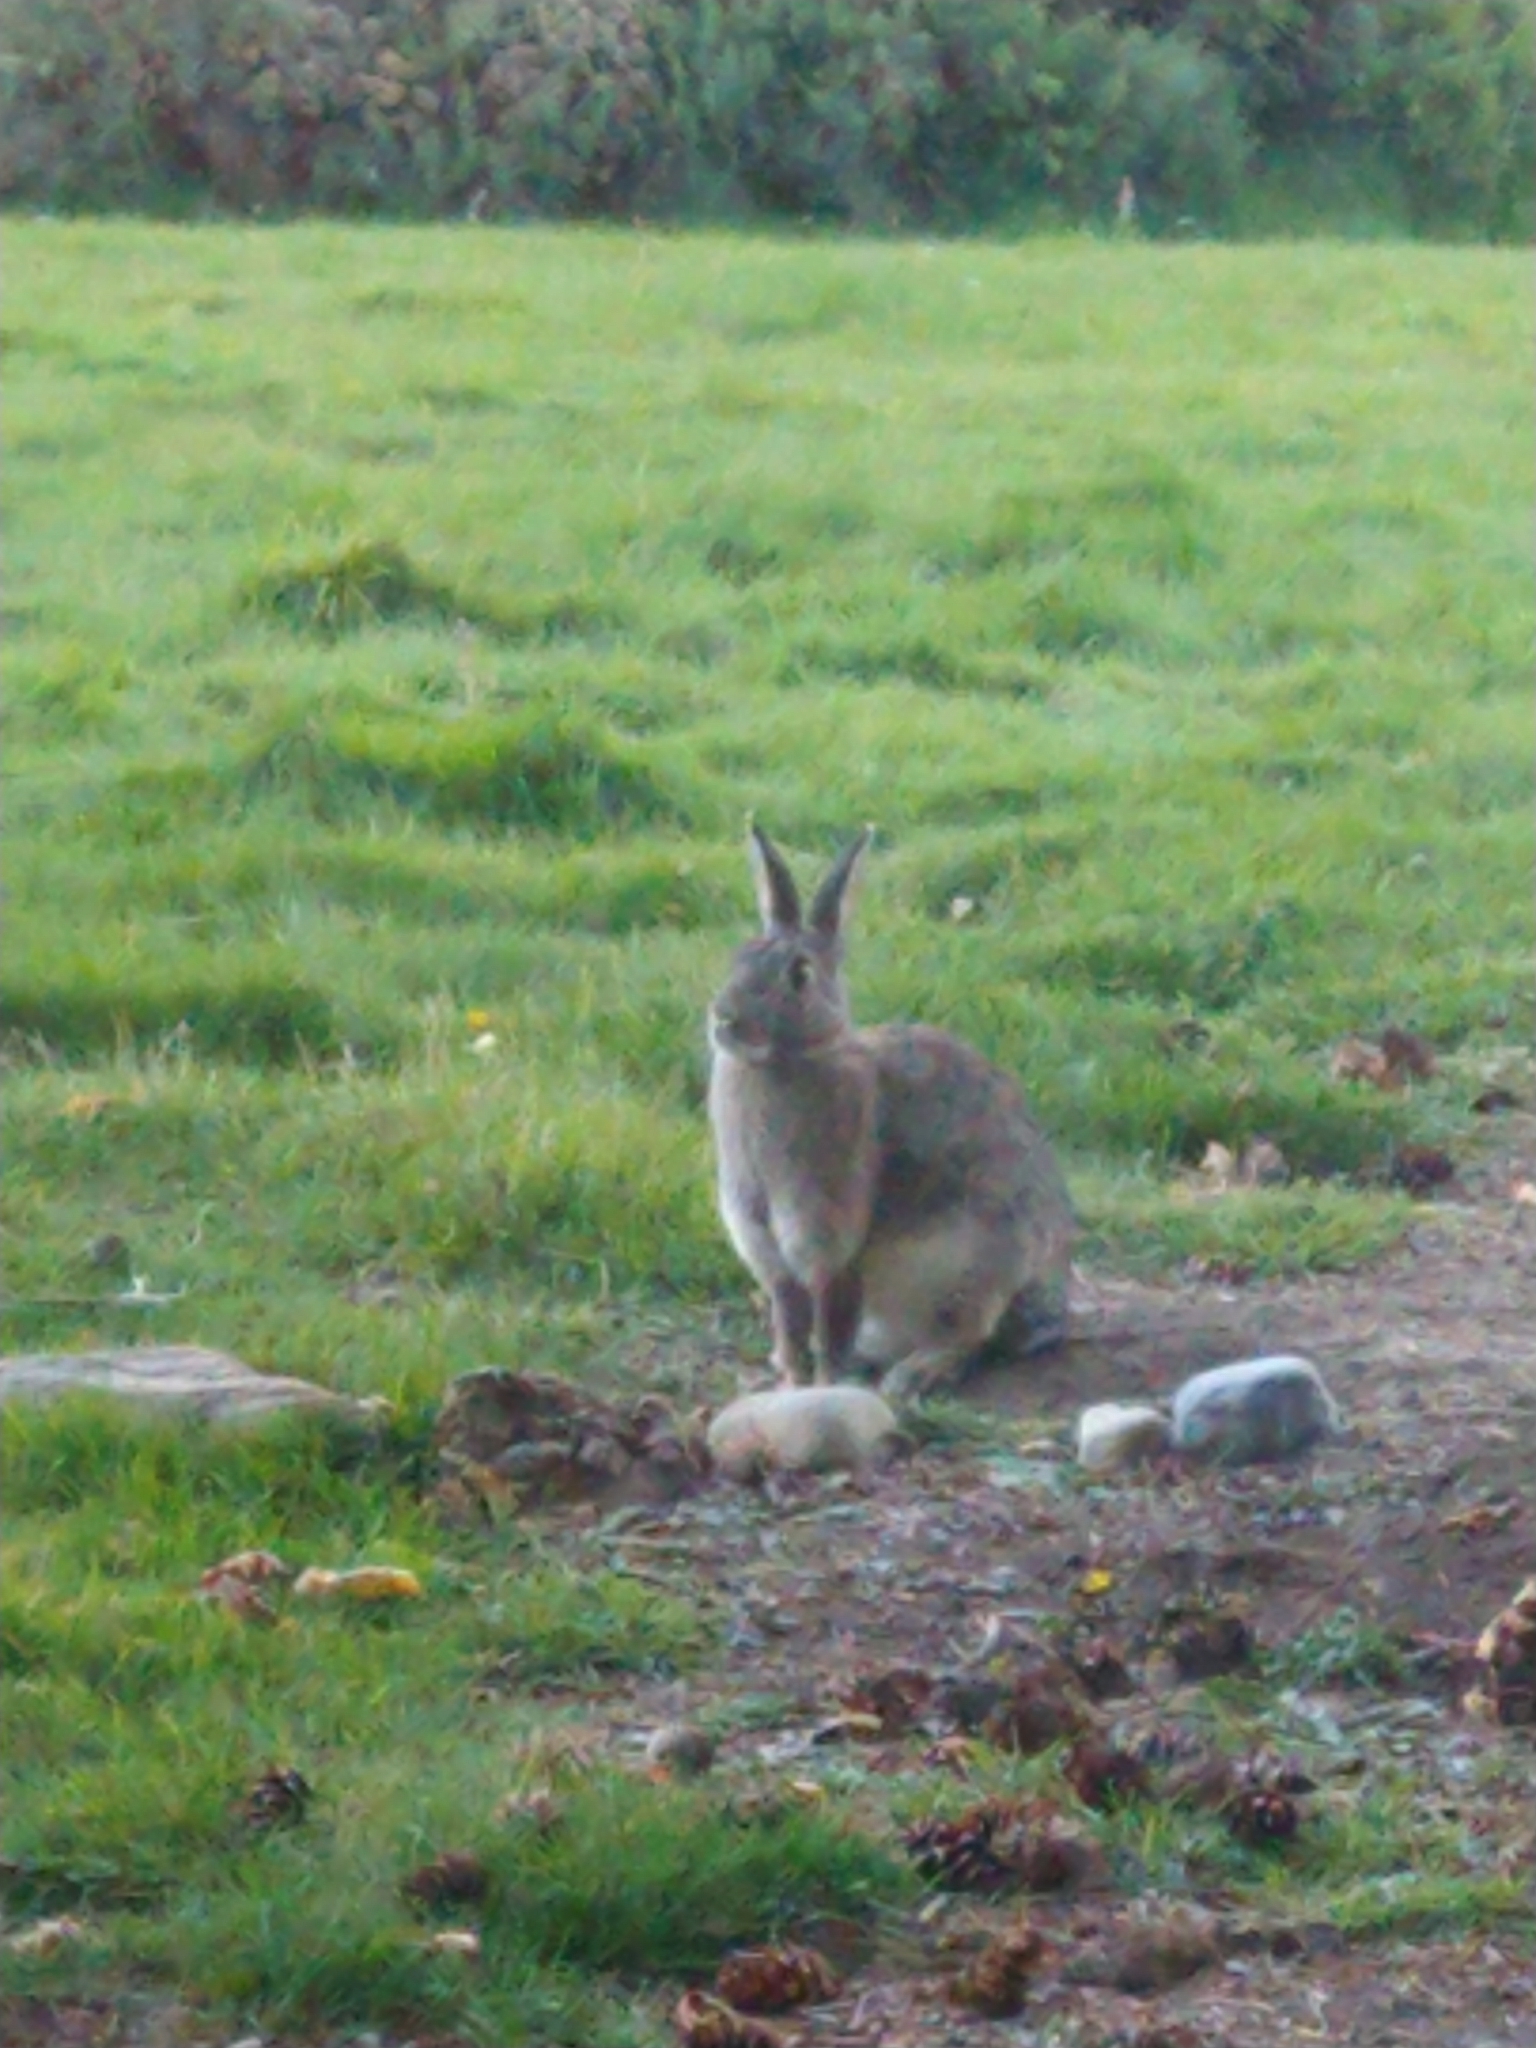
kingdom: Animalia
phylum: Chordata
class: Mammalia
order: Lagomorpha
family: Leporidae
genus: Oryctolagus
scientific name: Oryctolagus cuniculus
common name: European rabbit
